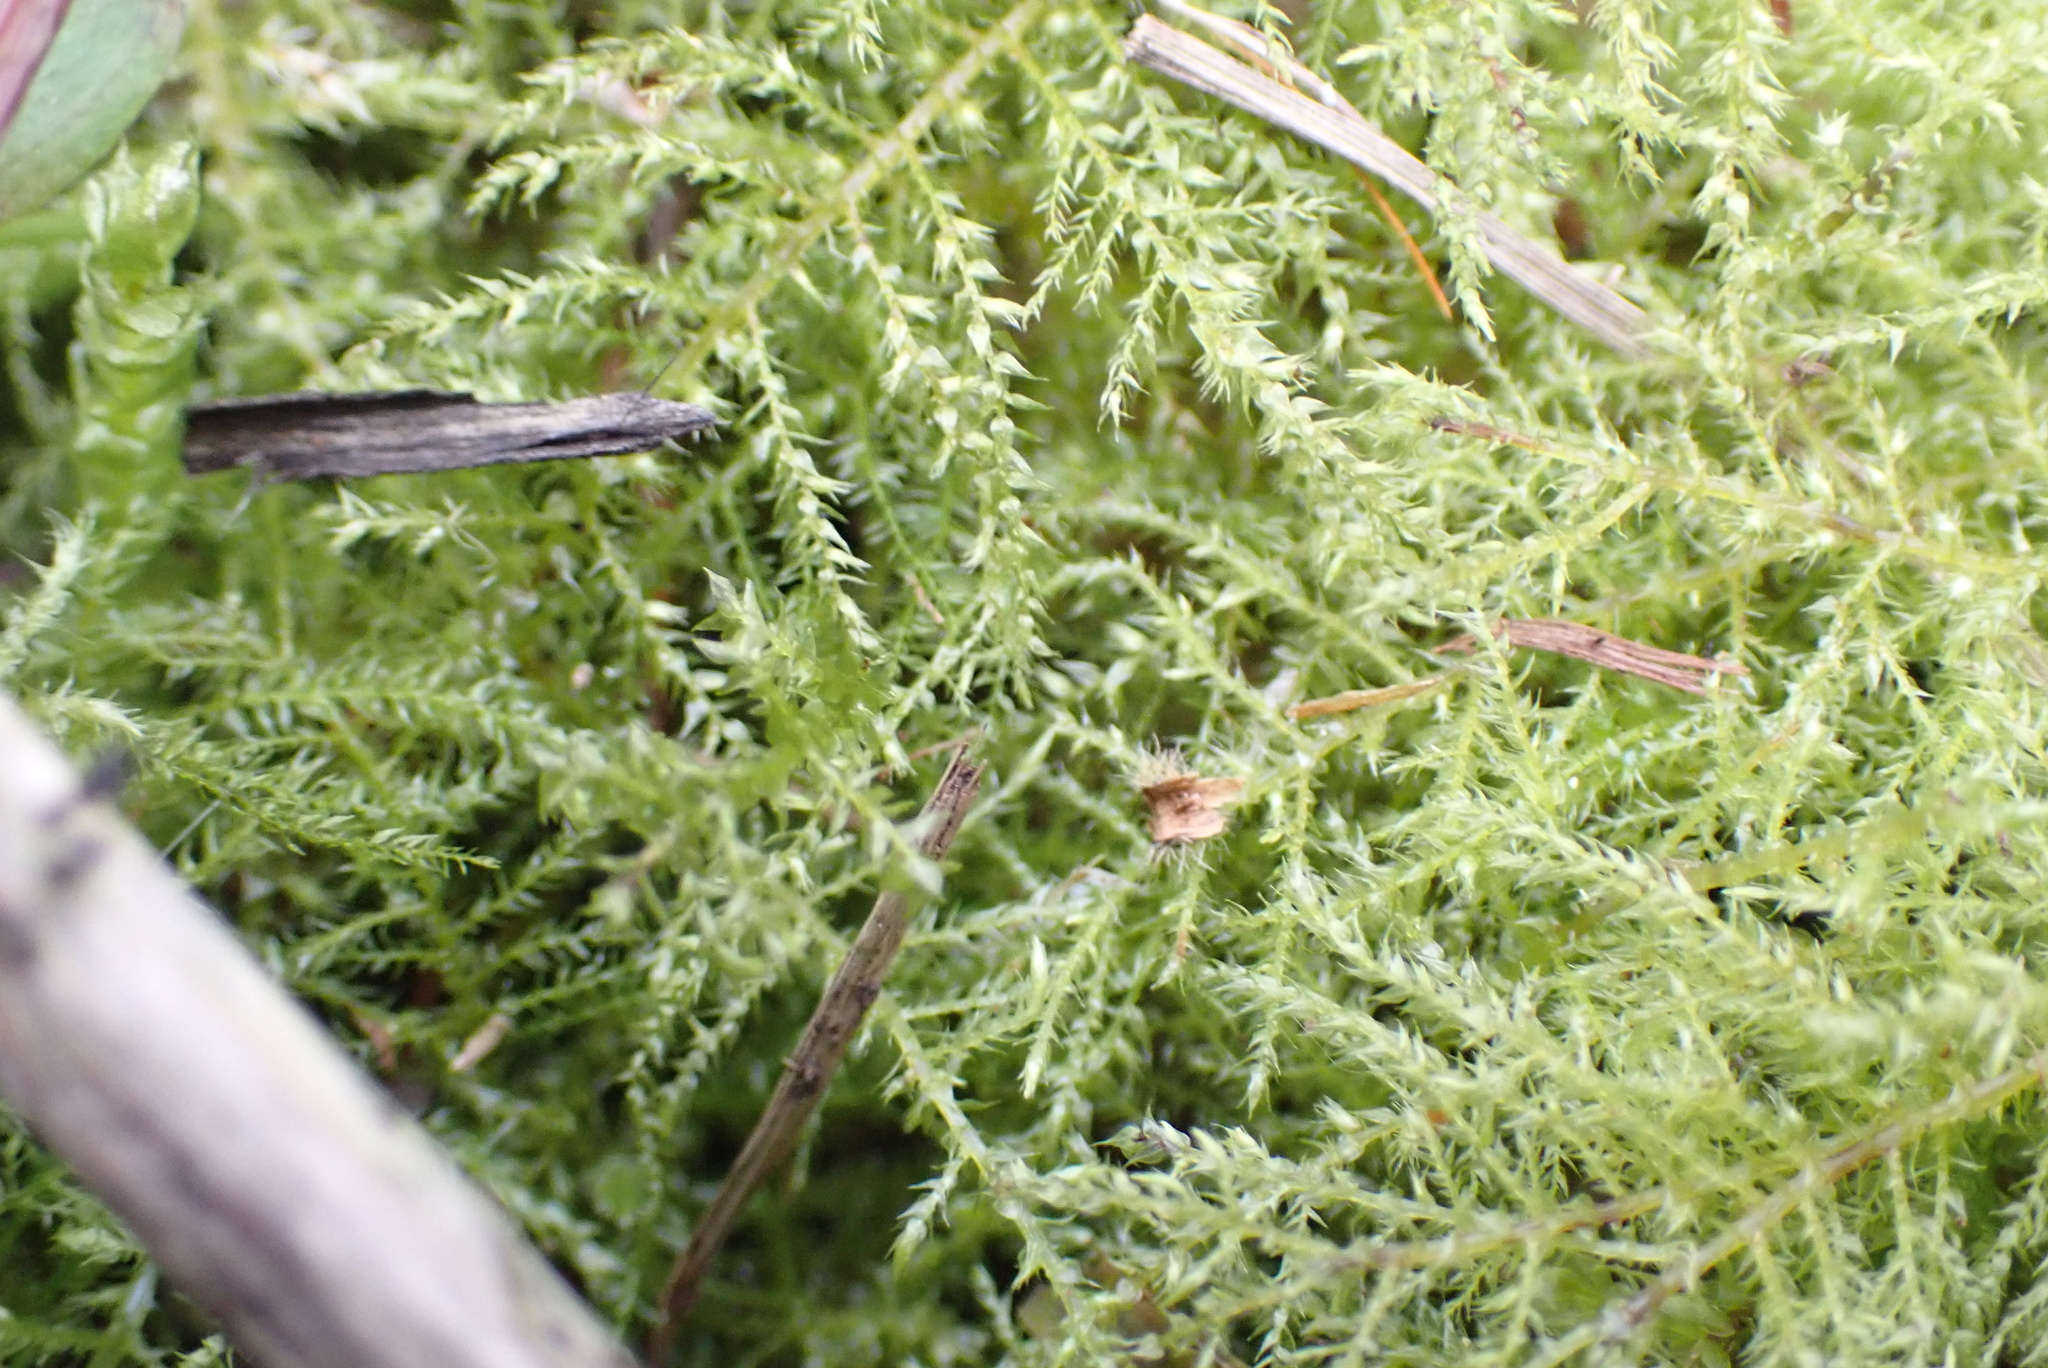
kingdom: Plantae
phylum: Bryophyta
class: Bryopsida
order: Hypnales
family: Brachytheciaceae
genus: Kindbergia
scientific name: Kindbergia praelonga
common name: Slender beaked moss
